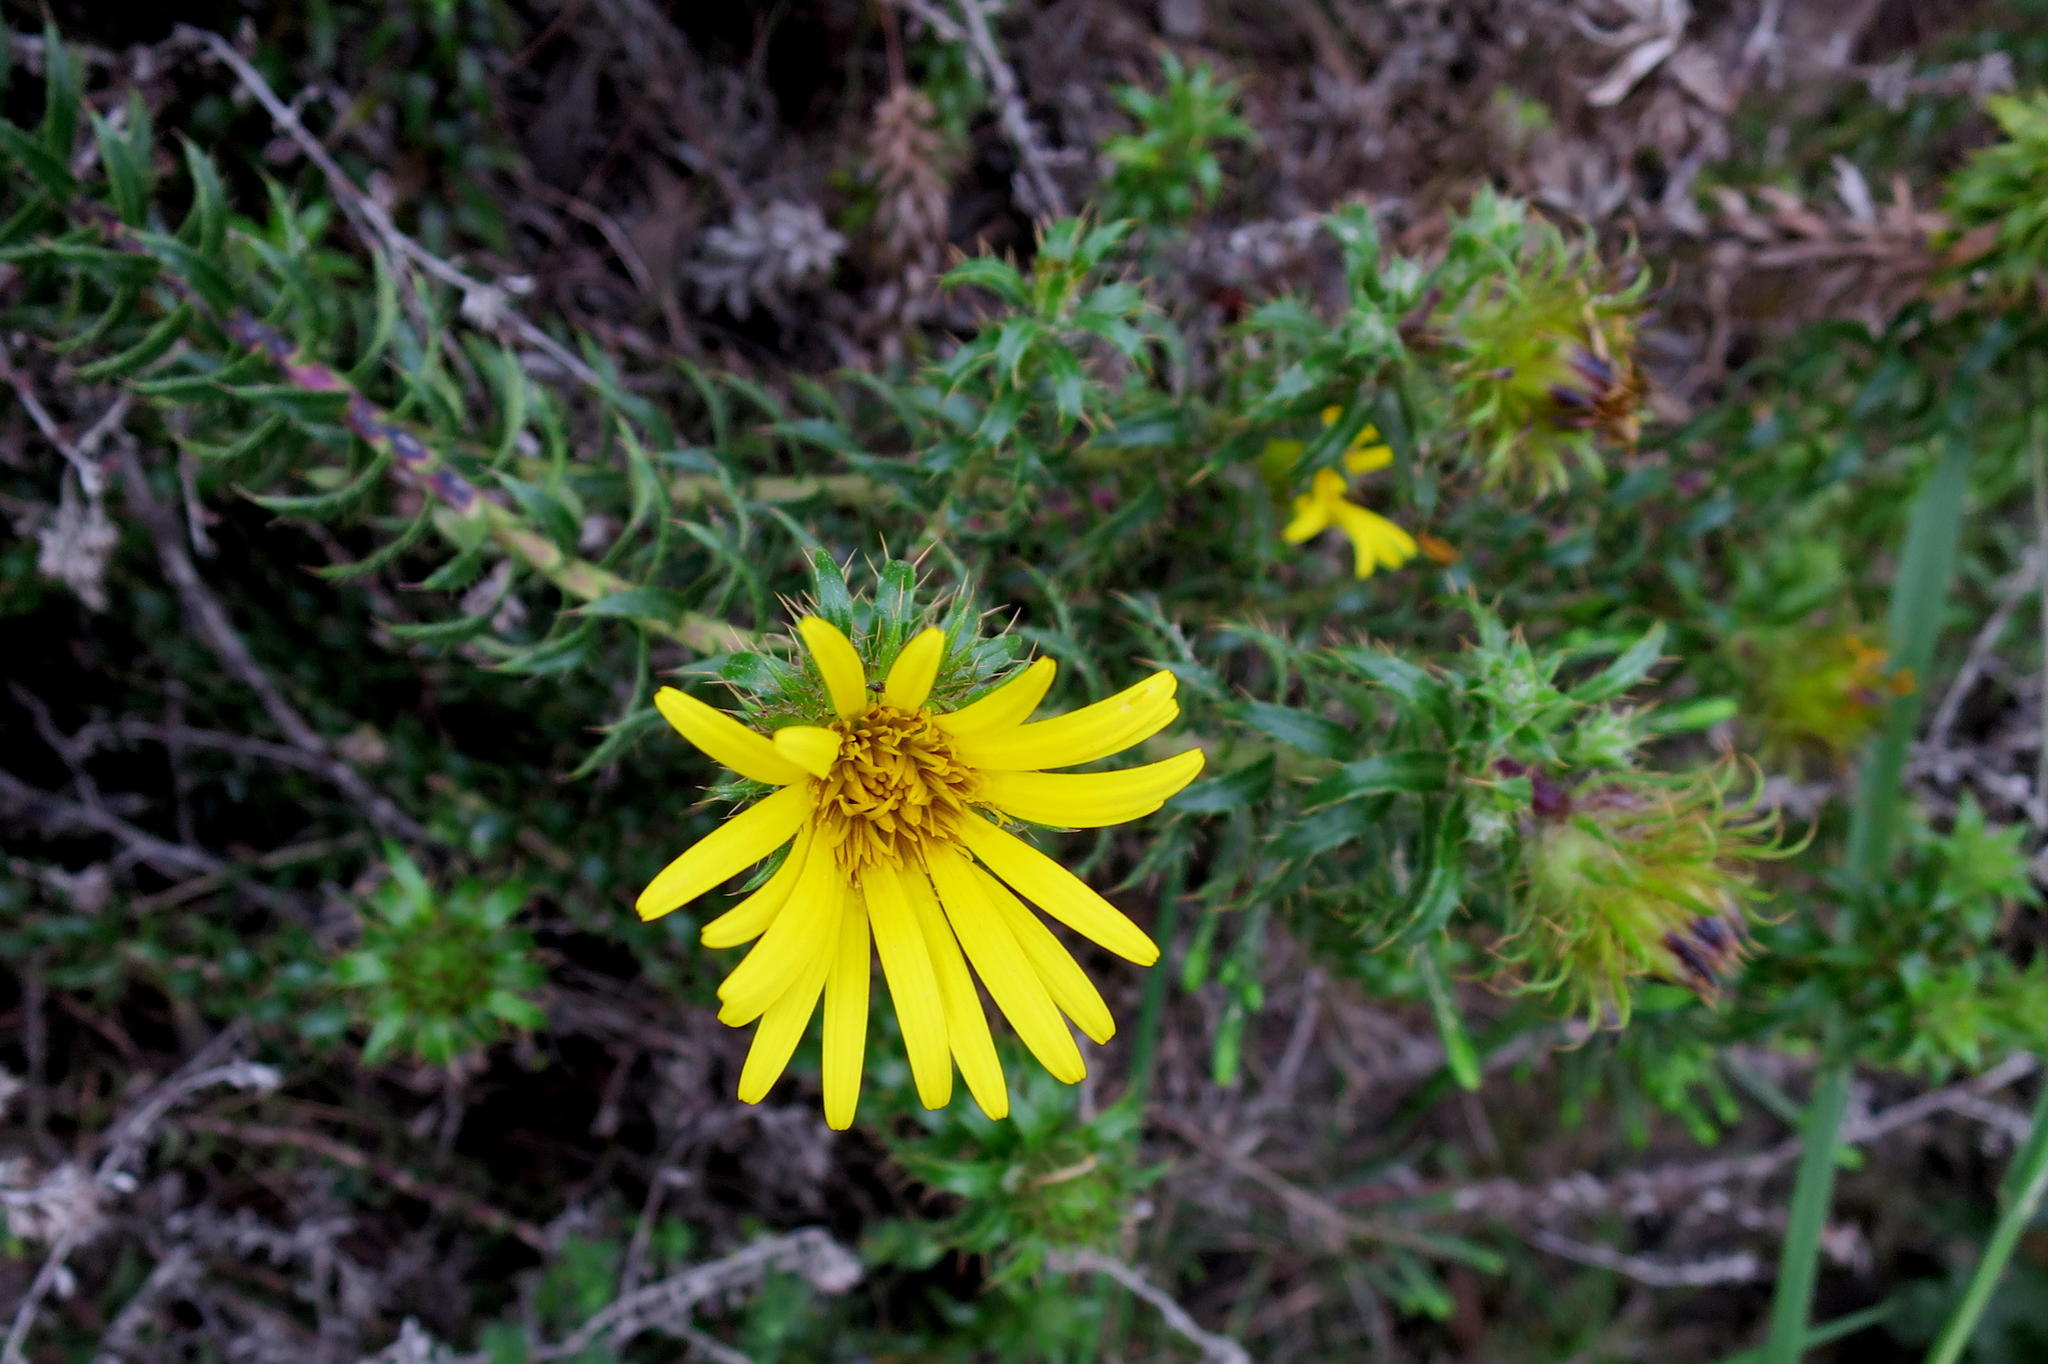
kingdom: Plantae
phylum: Tracheophyta
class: Magnoliopsida
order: Asterales
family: Asteraceae
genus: Cullumia
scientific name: Cullumia carlinoides
